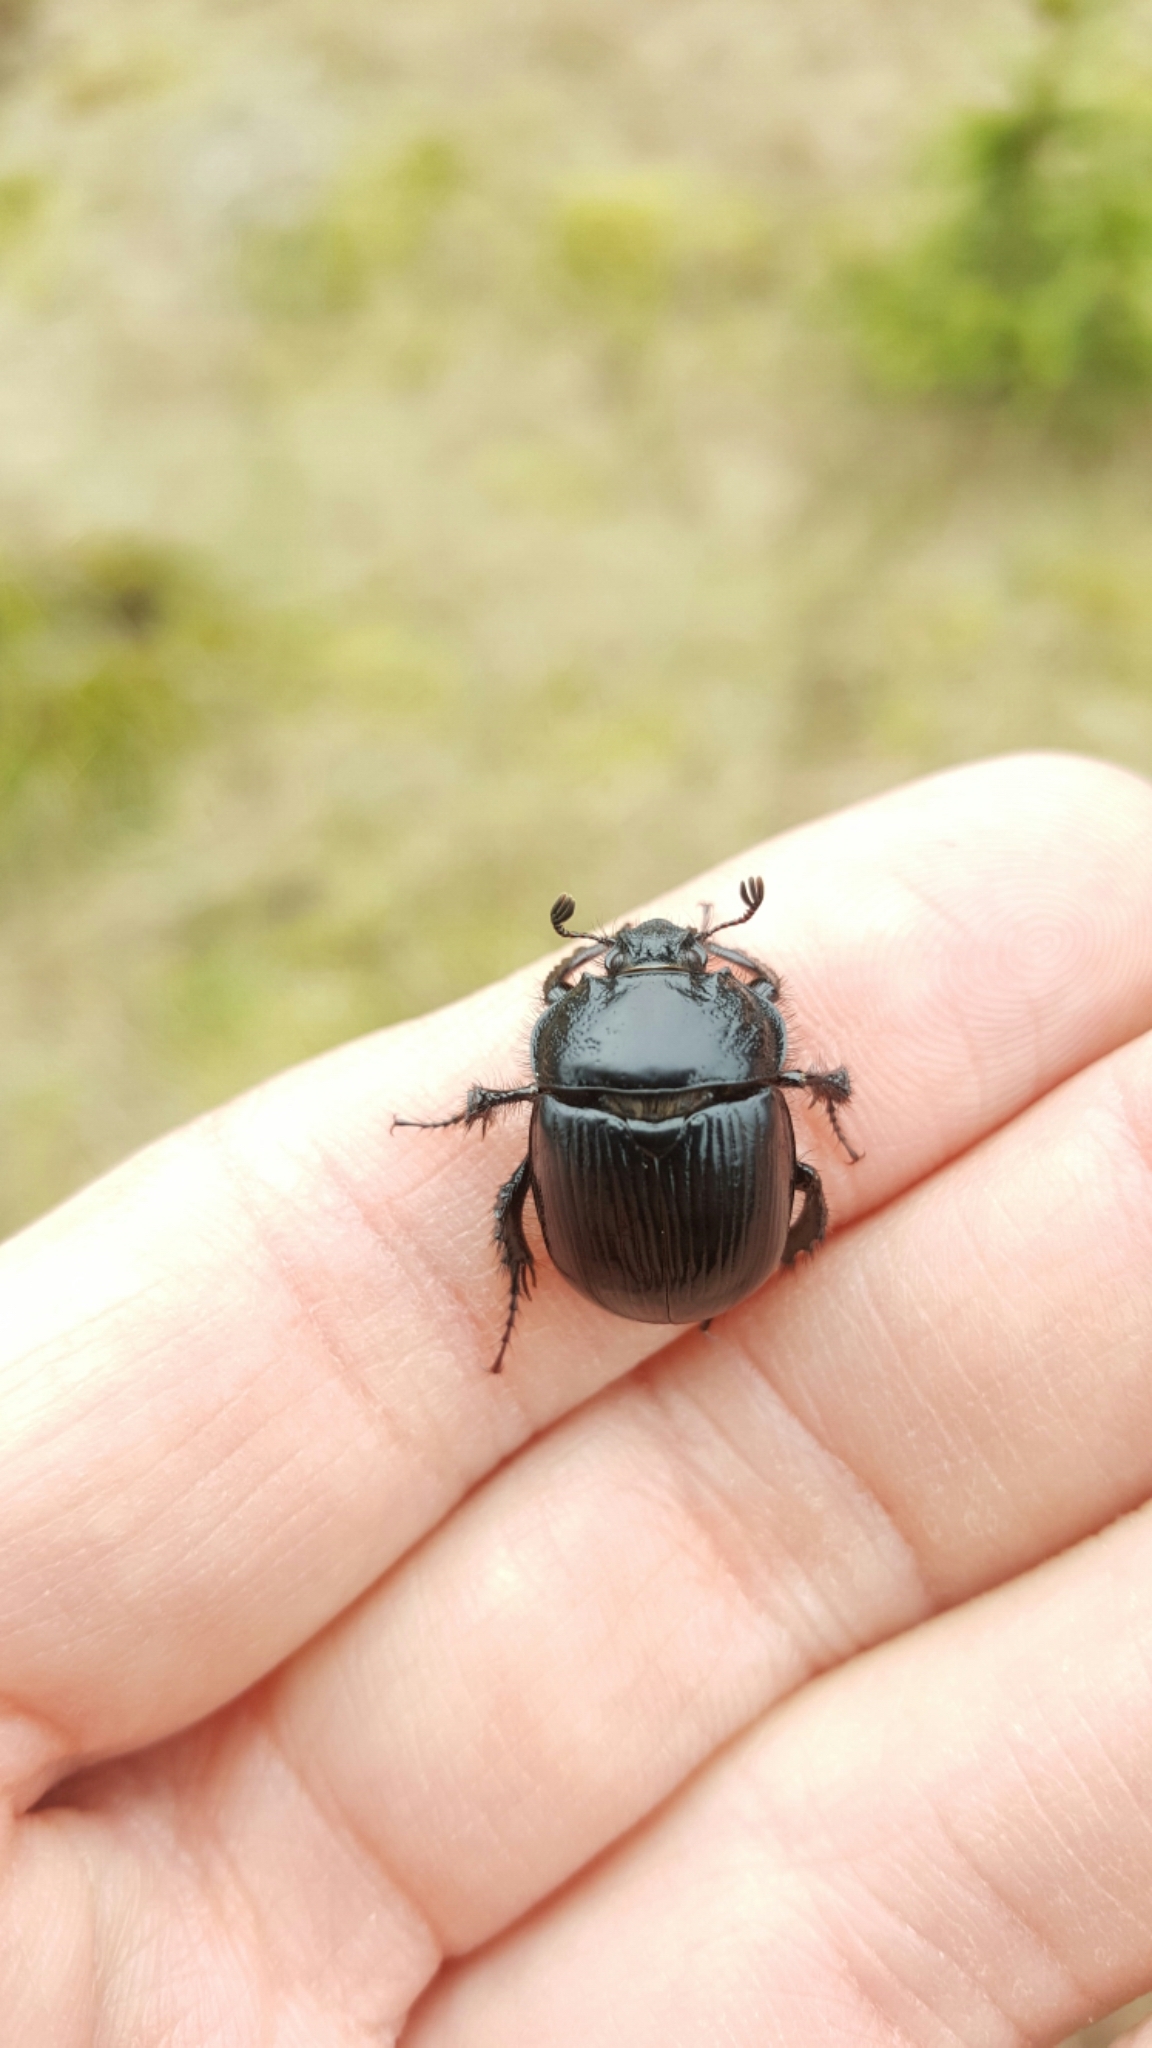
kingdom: Animalia
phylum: Arthropoda
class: Insecta
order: Coleoptera
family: Geotrupidae
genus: Typhaeus
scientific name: Typhaeus typhoeus
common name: Minotaur beetle
